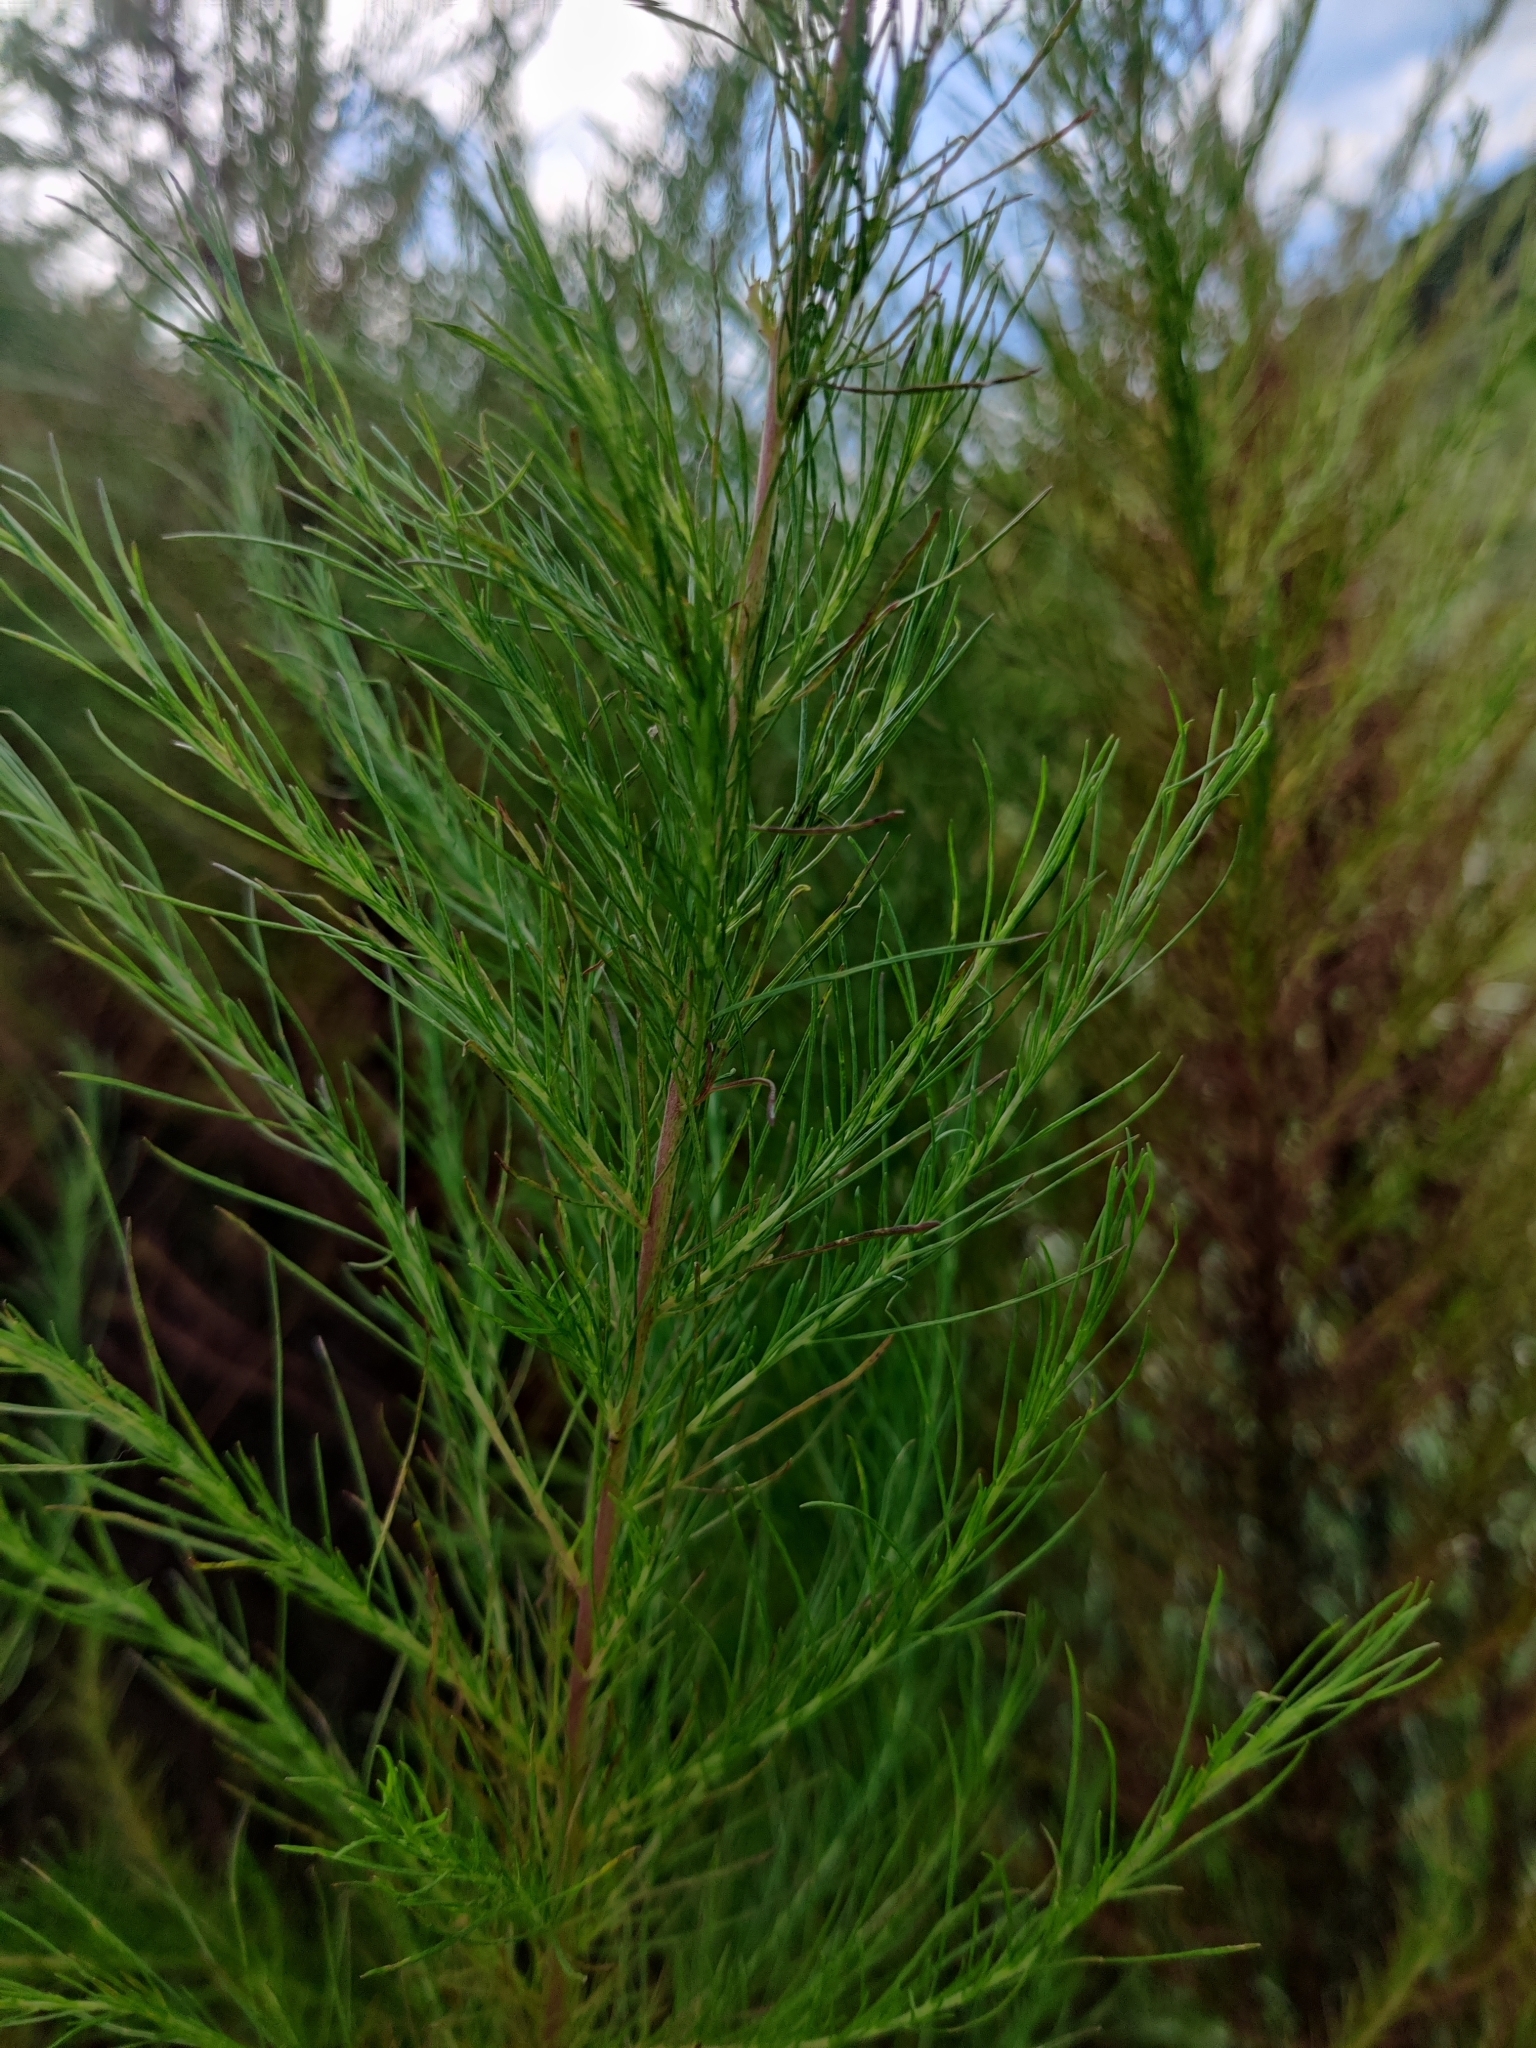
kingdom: Plantae
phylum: Tracheophyta
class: Magnoliopsida
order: Asterales
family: Asteraceae
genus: Eupatorium
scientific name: Eupatorium capillifolium
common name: Dog-fennel
